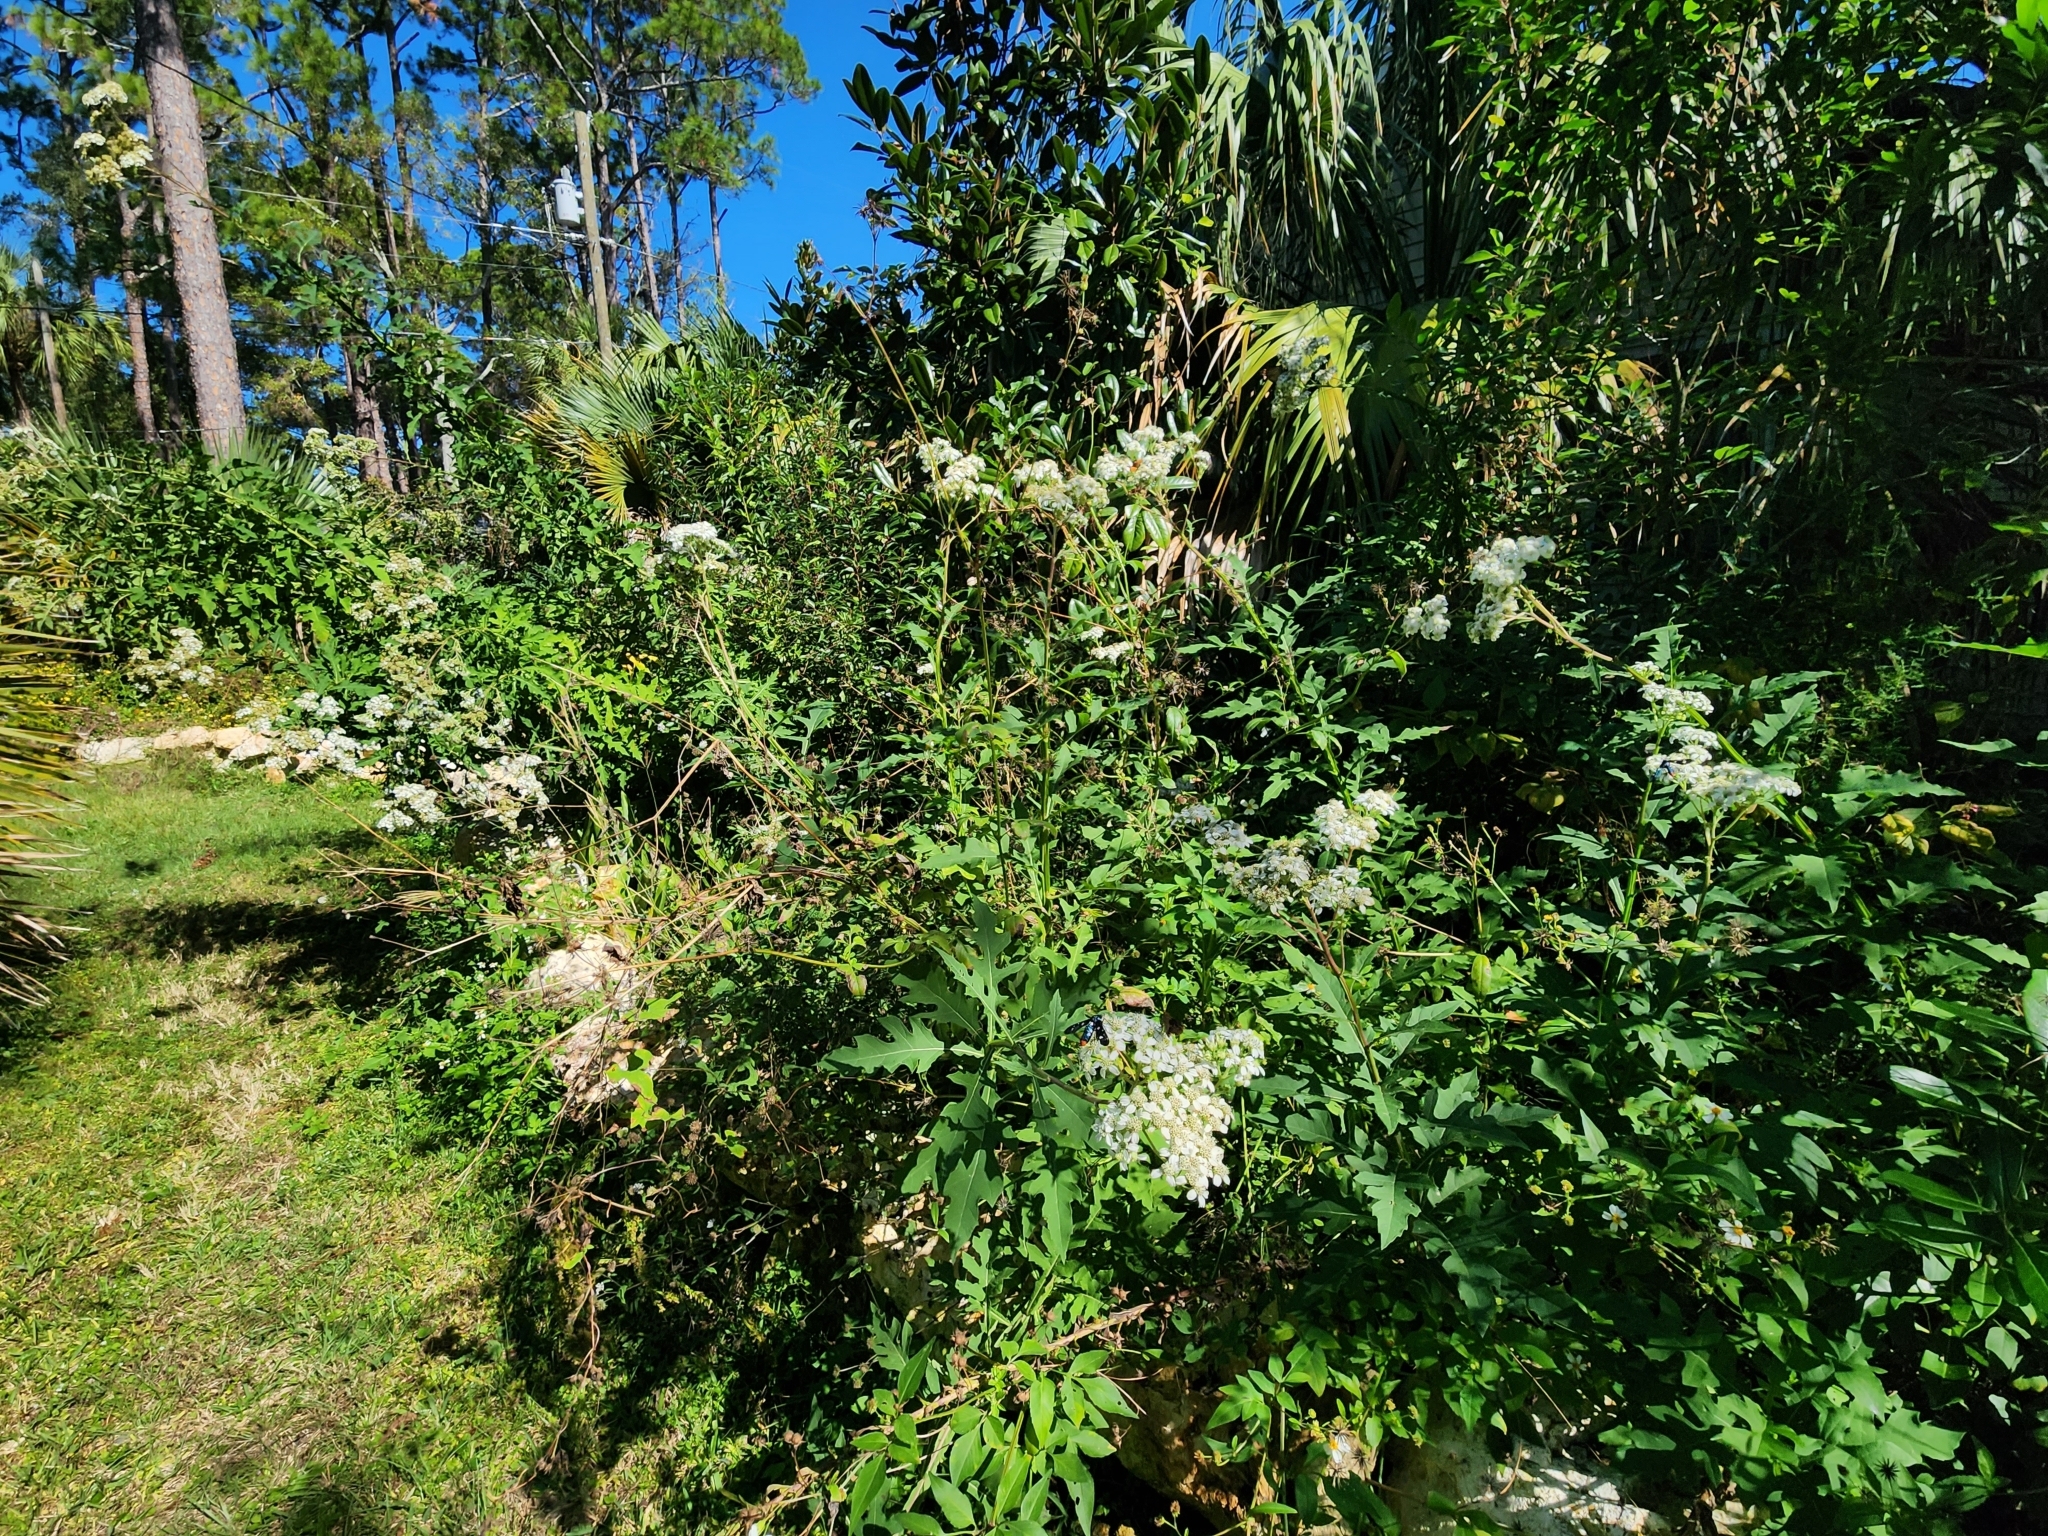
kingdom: Animalia
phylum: Arthropoda
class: Insecta
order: Lepidoptera
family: Nymphalidae
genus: Danaus
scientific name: Danaus plexippus
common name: Monarch
